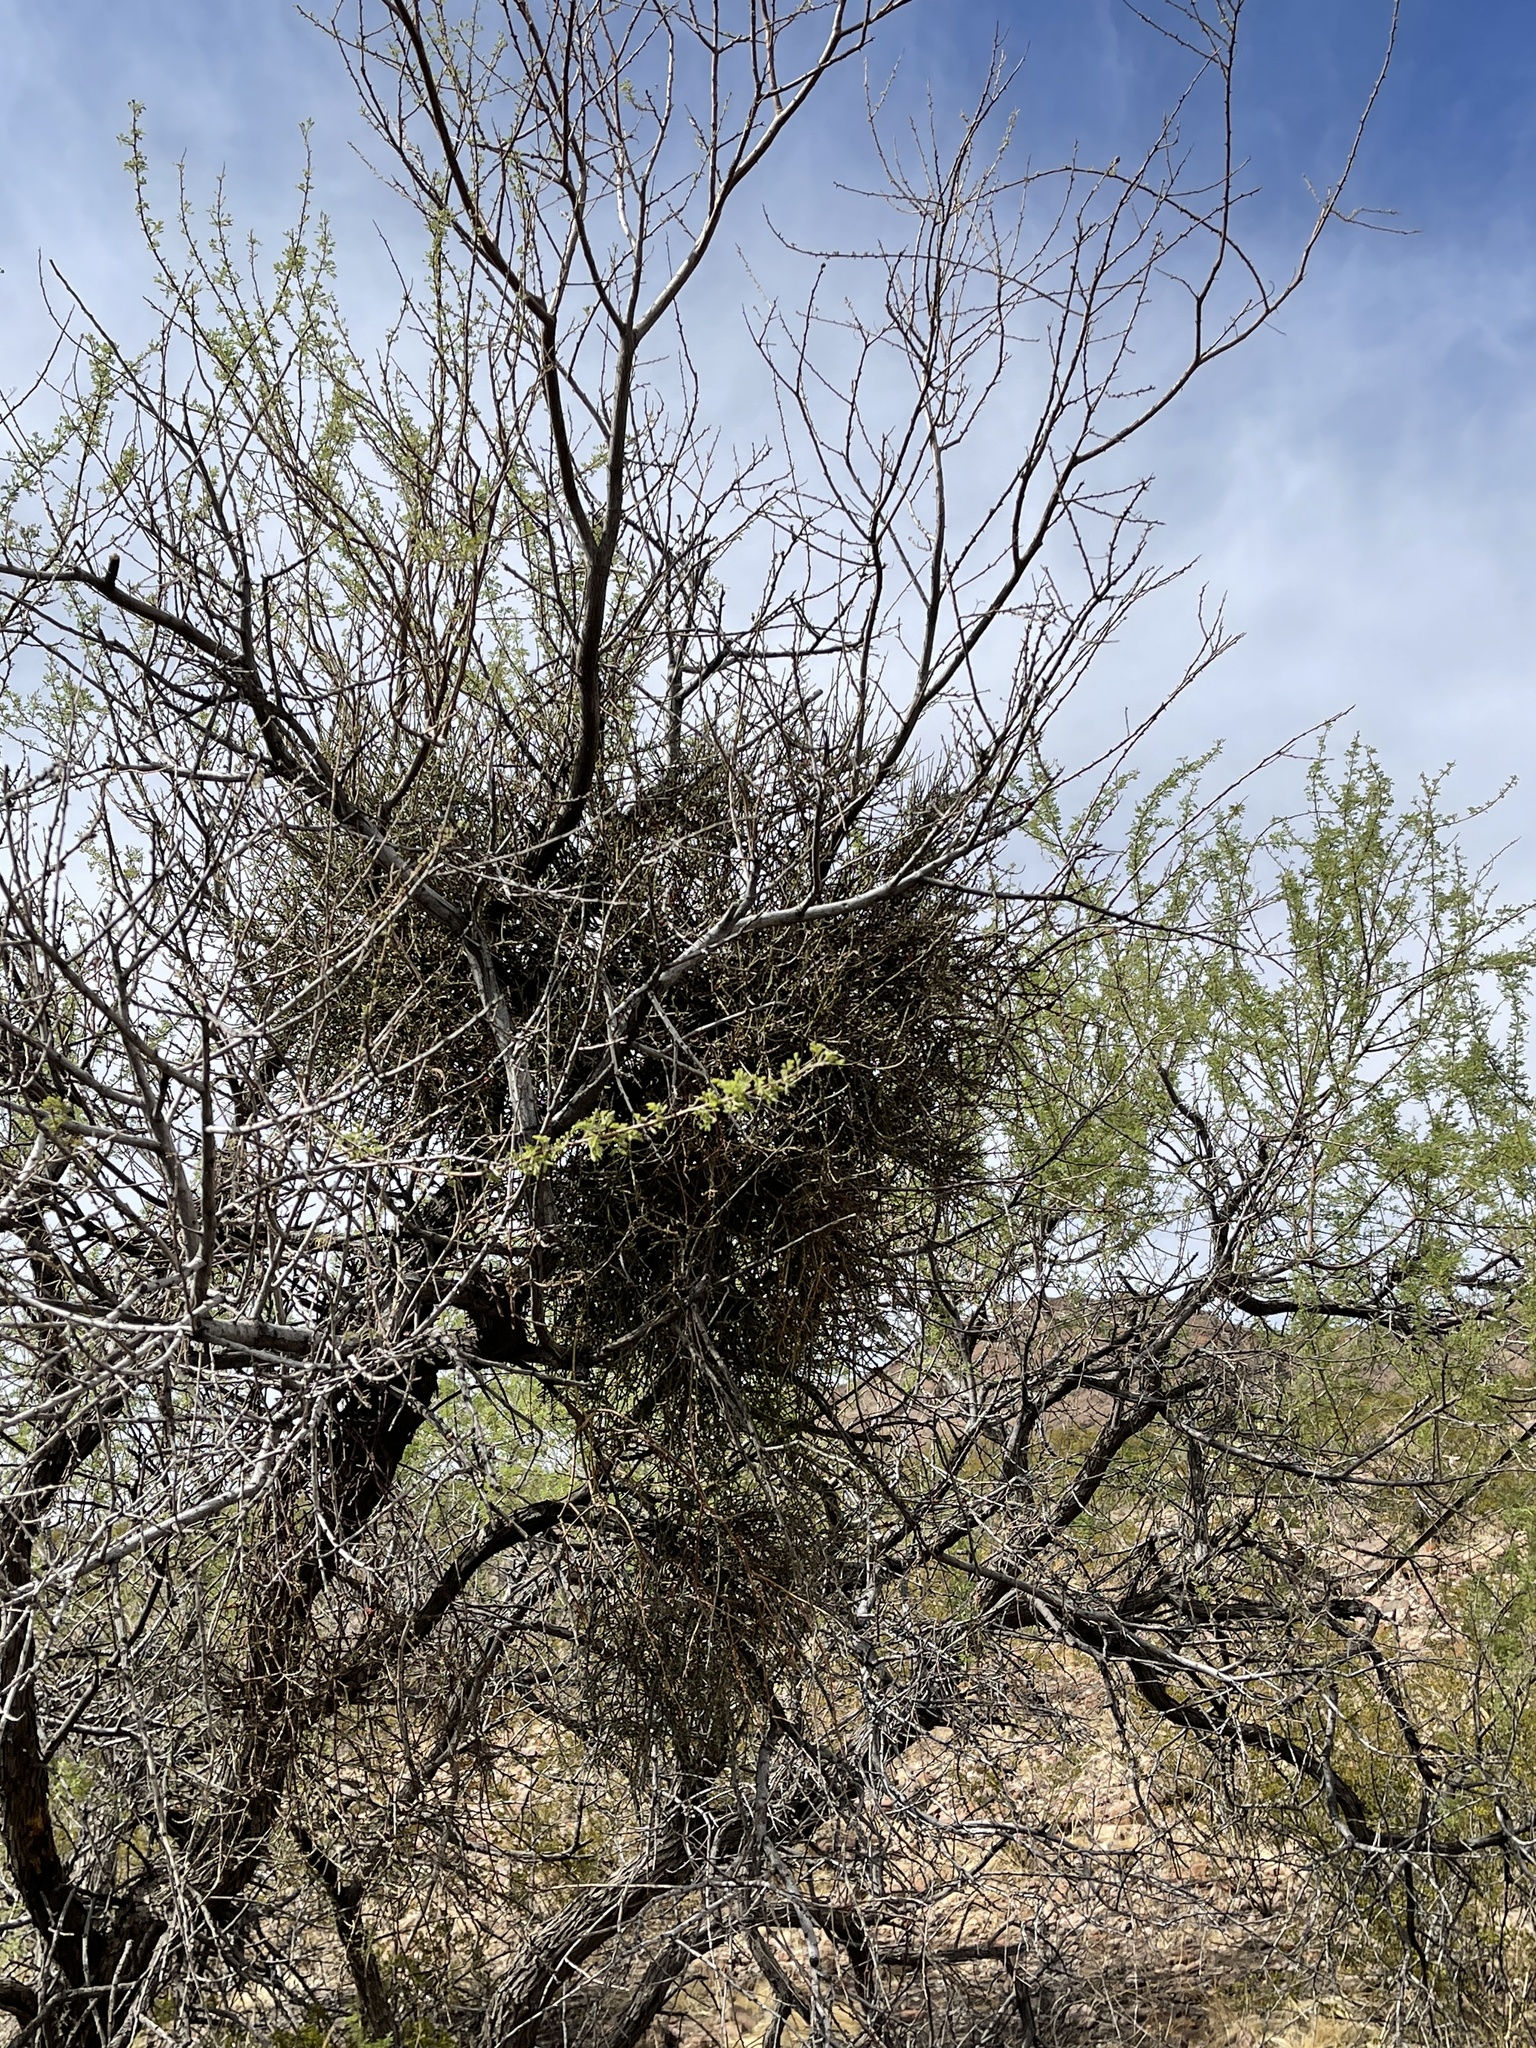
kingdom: Plantae
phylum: Tracheophyta
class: Magnoliopsida
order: Santalales
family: Viscaceae
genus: Phoradendron
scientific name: Phoradendron californicum
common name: Acacia mistletoe
